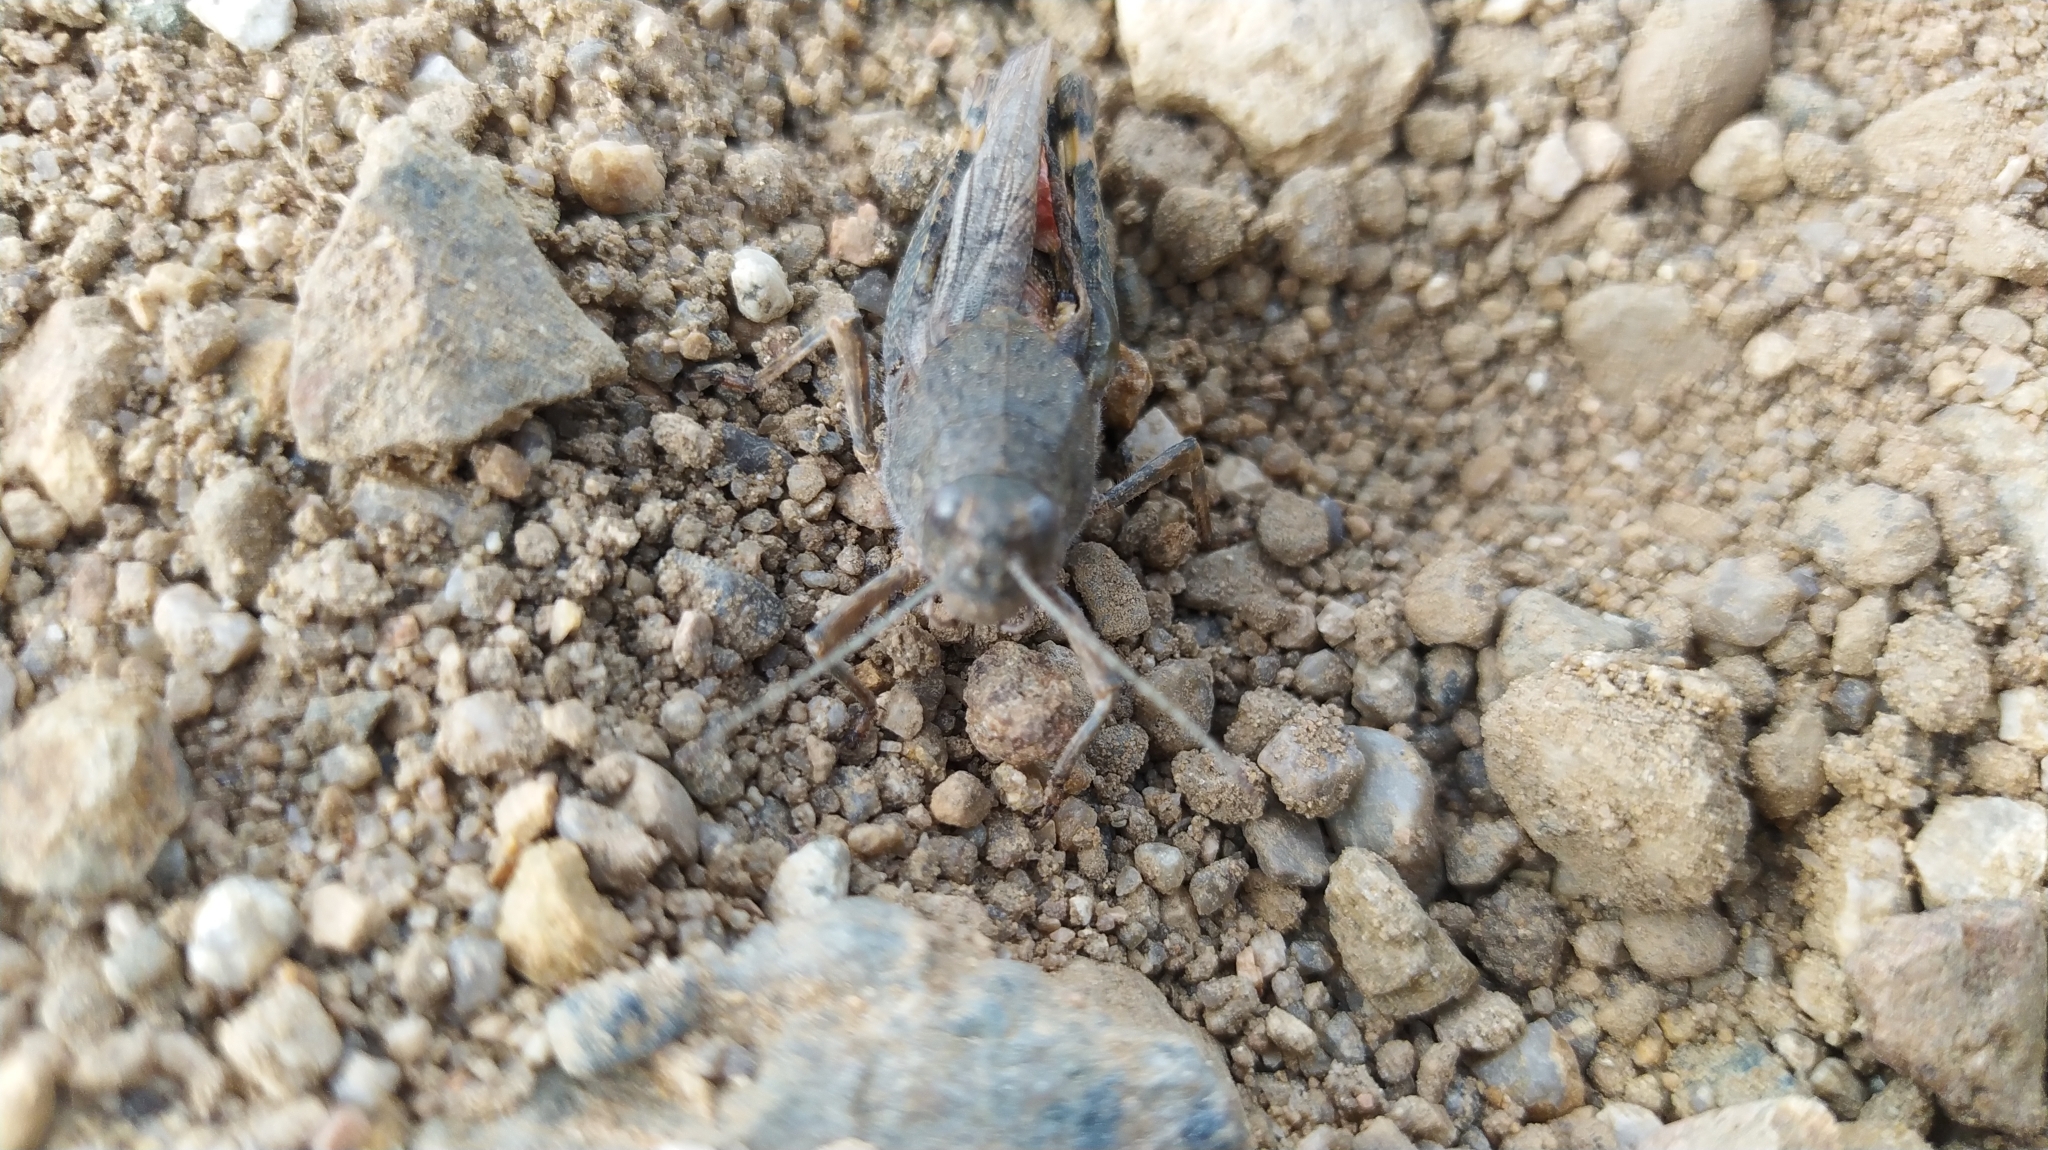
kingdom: Animalia
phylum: Arthropoda
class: Insecta
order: Orthoptera
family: Acrididae
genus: Bryodema
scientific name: Bryodema gebleri
